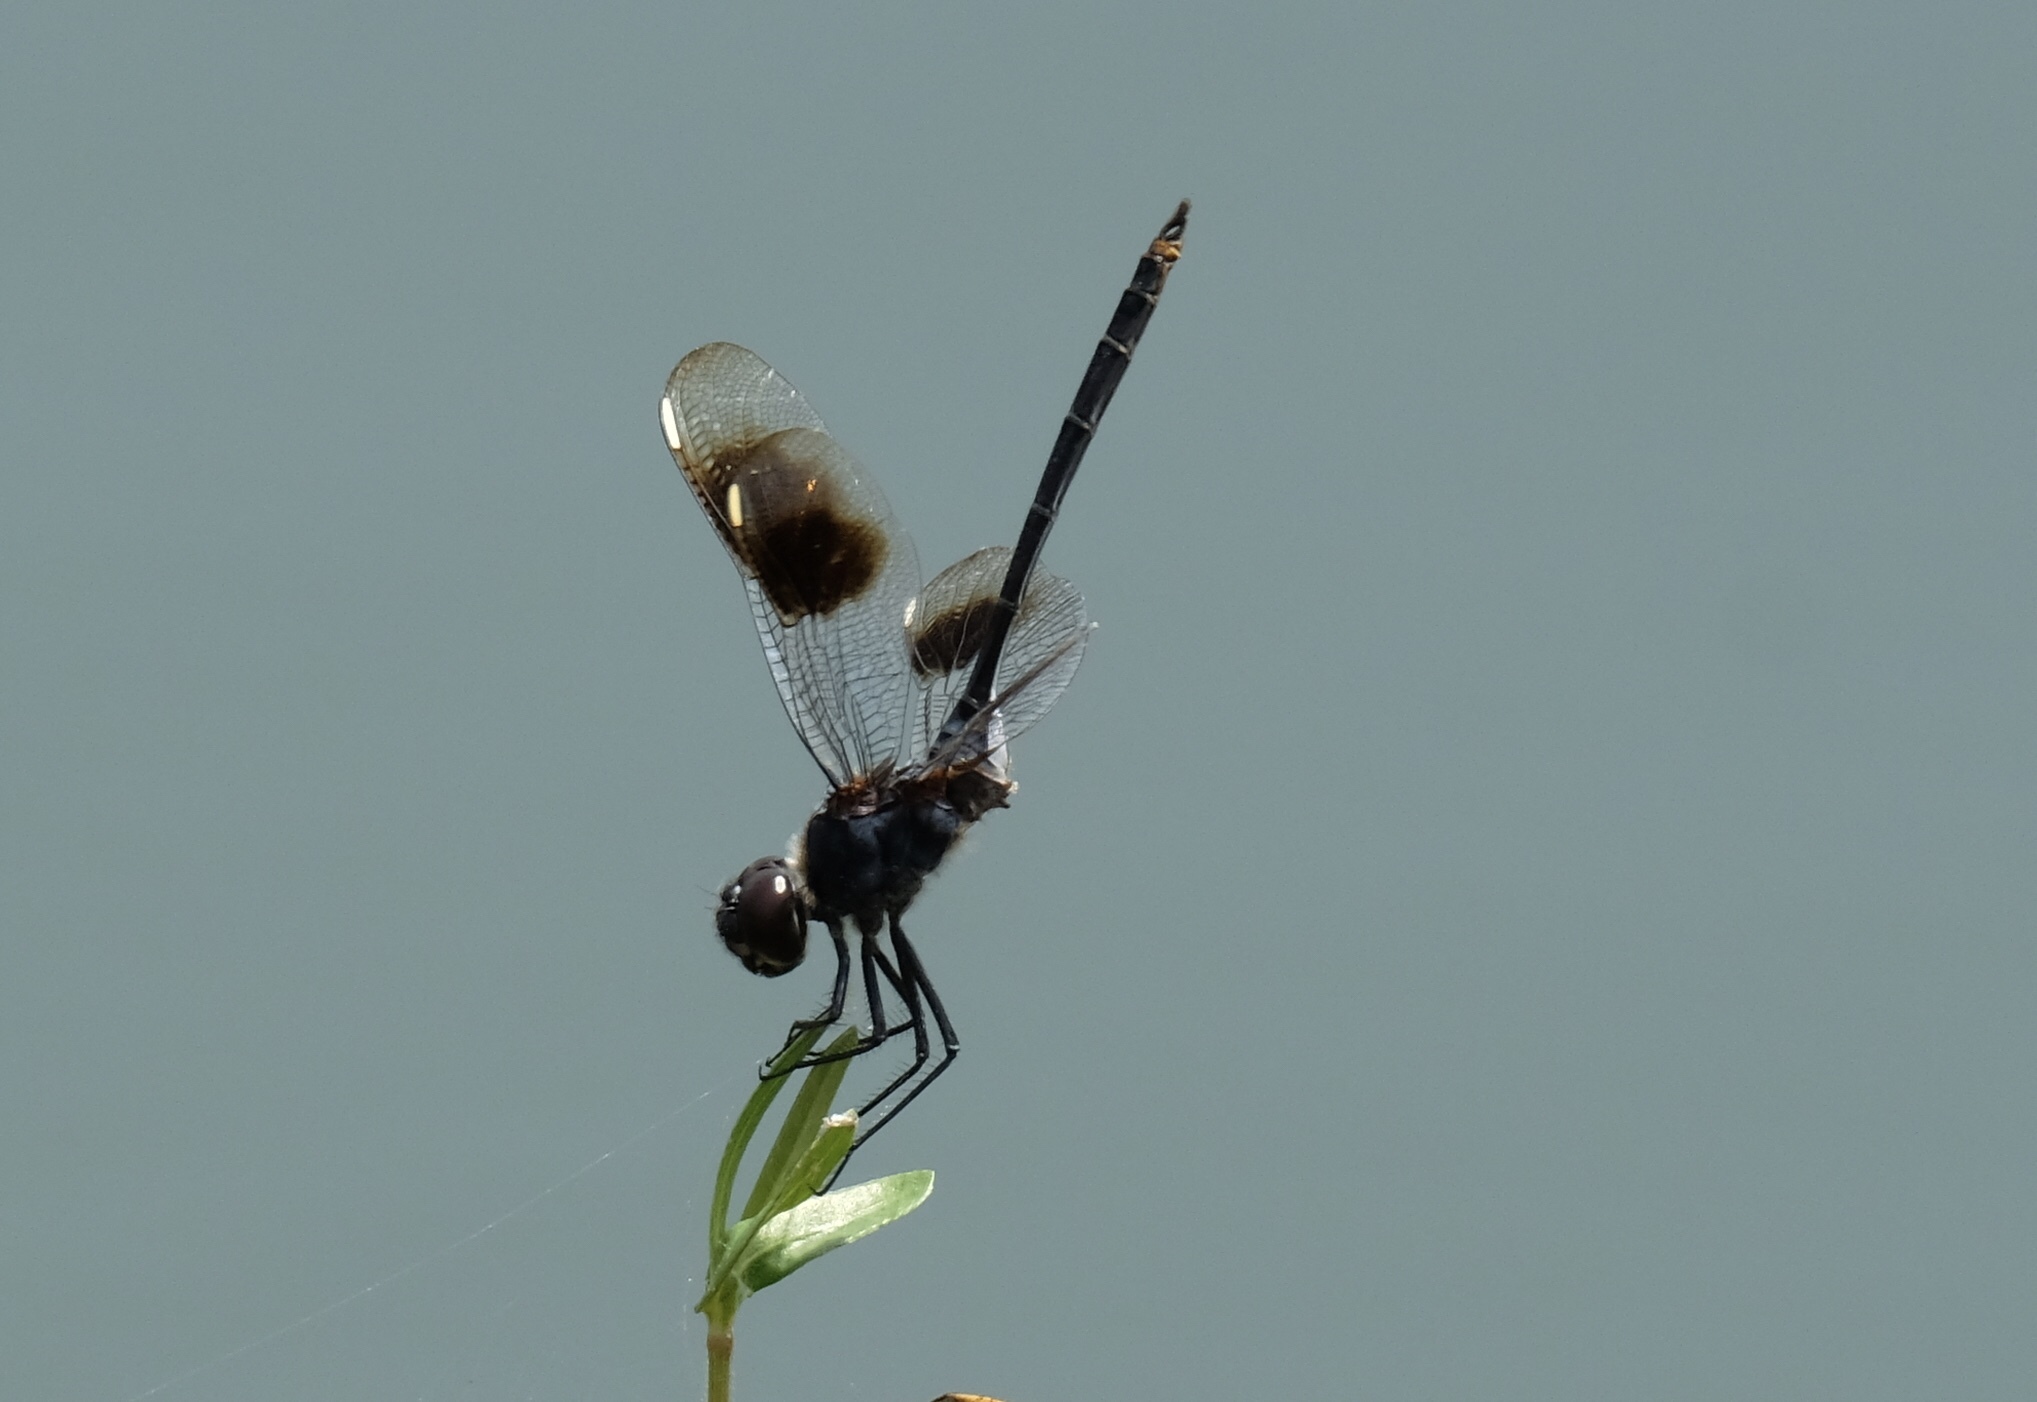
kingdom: Animalia
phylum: Arthropoda
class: Insecta
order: Odonata
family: Libellulidae
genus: Brachymesia
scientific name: Brachymesia gravida
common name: Four-spotted pennant
